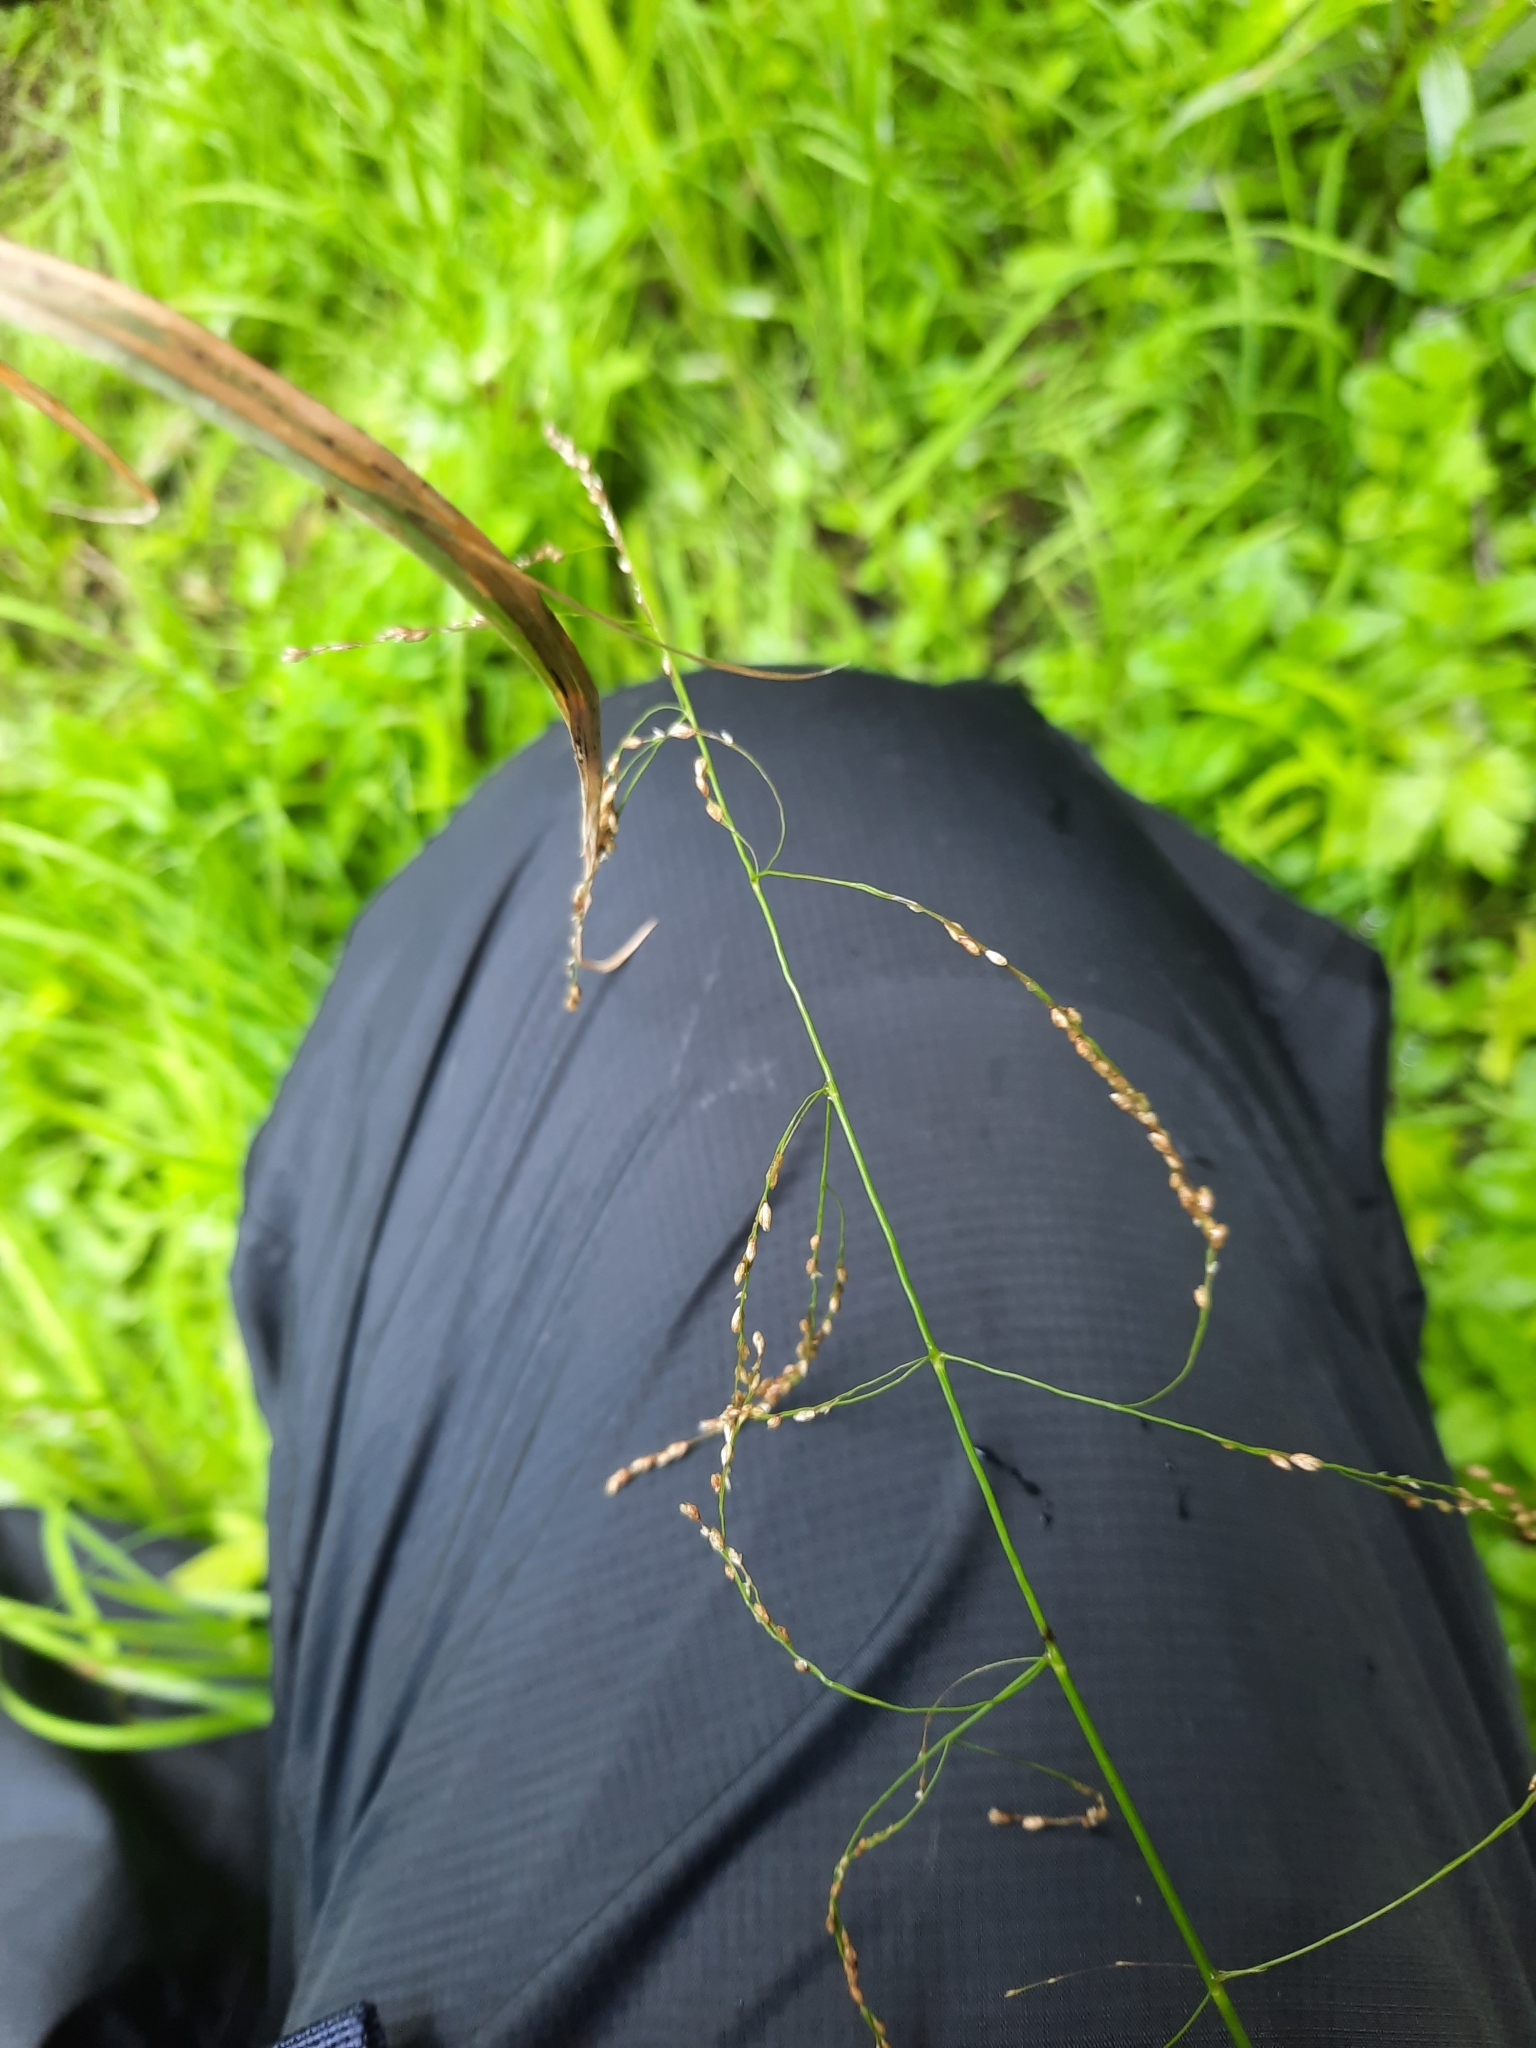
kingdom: Plantae
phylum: Tracheophyta
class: Liliopsida
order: Poales
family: Poaceae
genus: Glyceria
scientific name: Glyceria striata
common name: Fowl manna grass
